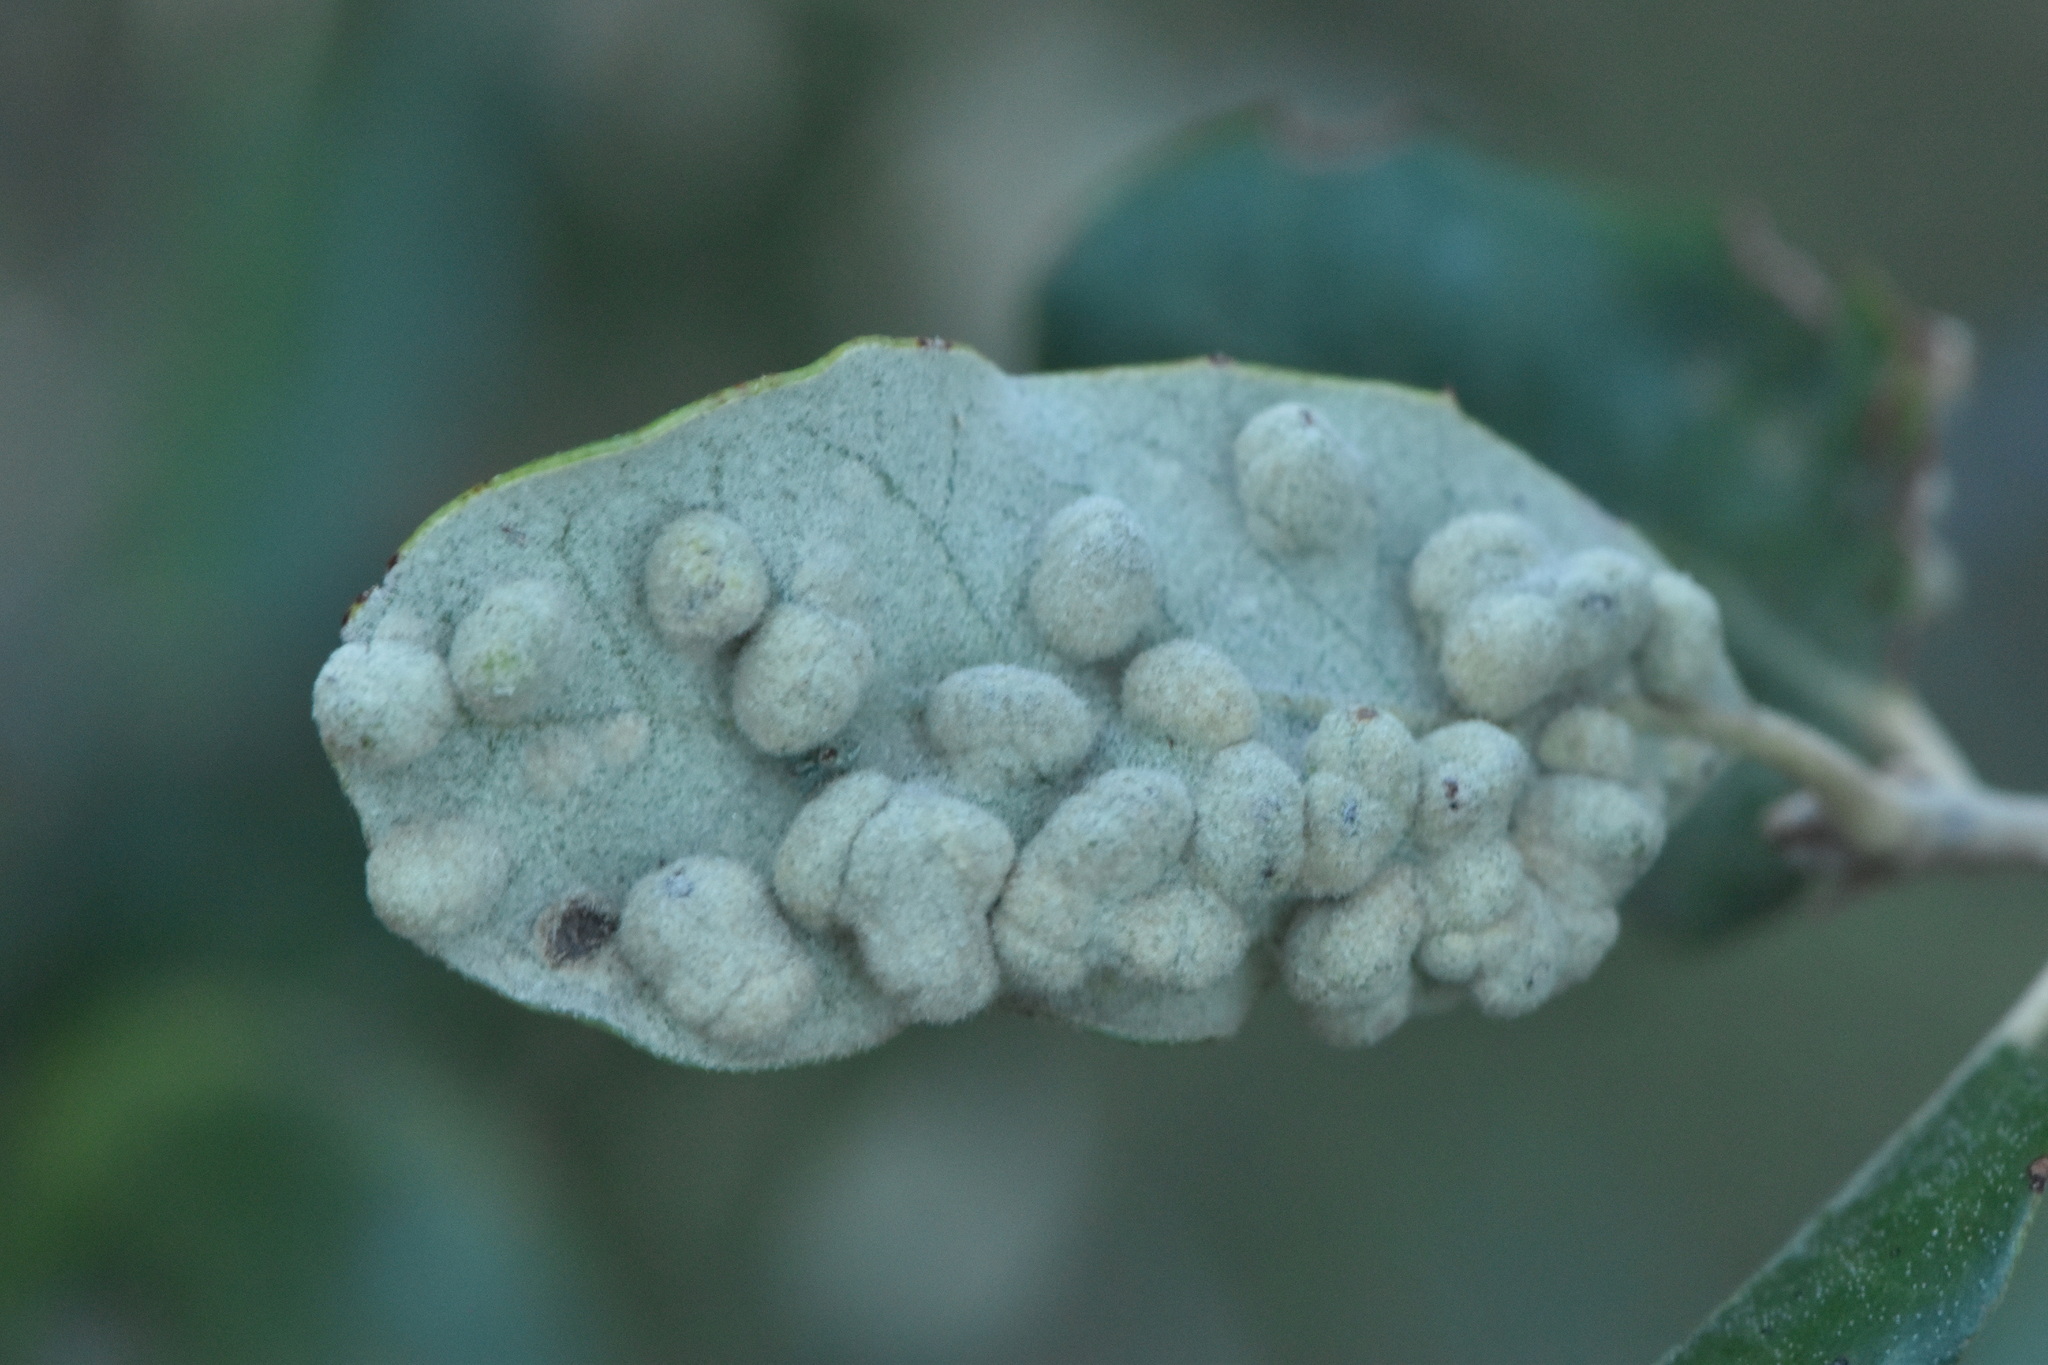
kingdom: Animalia
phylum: Arthropoda
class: Insecta
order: Diptera
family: Cecidomyiidae
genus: Dryomyia
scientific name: Dryomyia lichtensteinii
